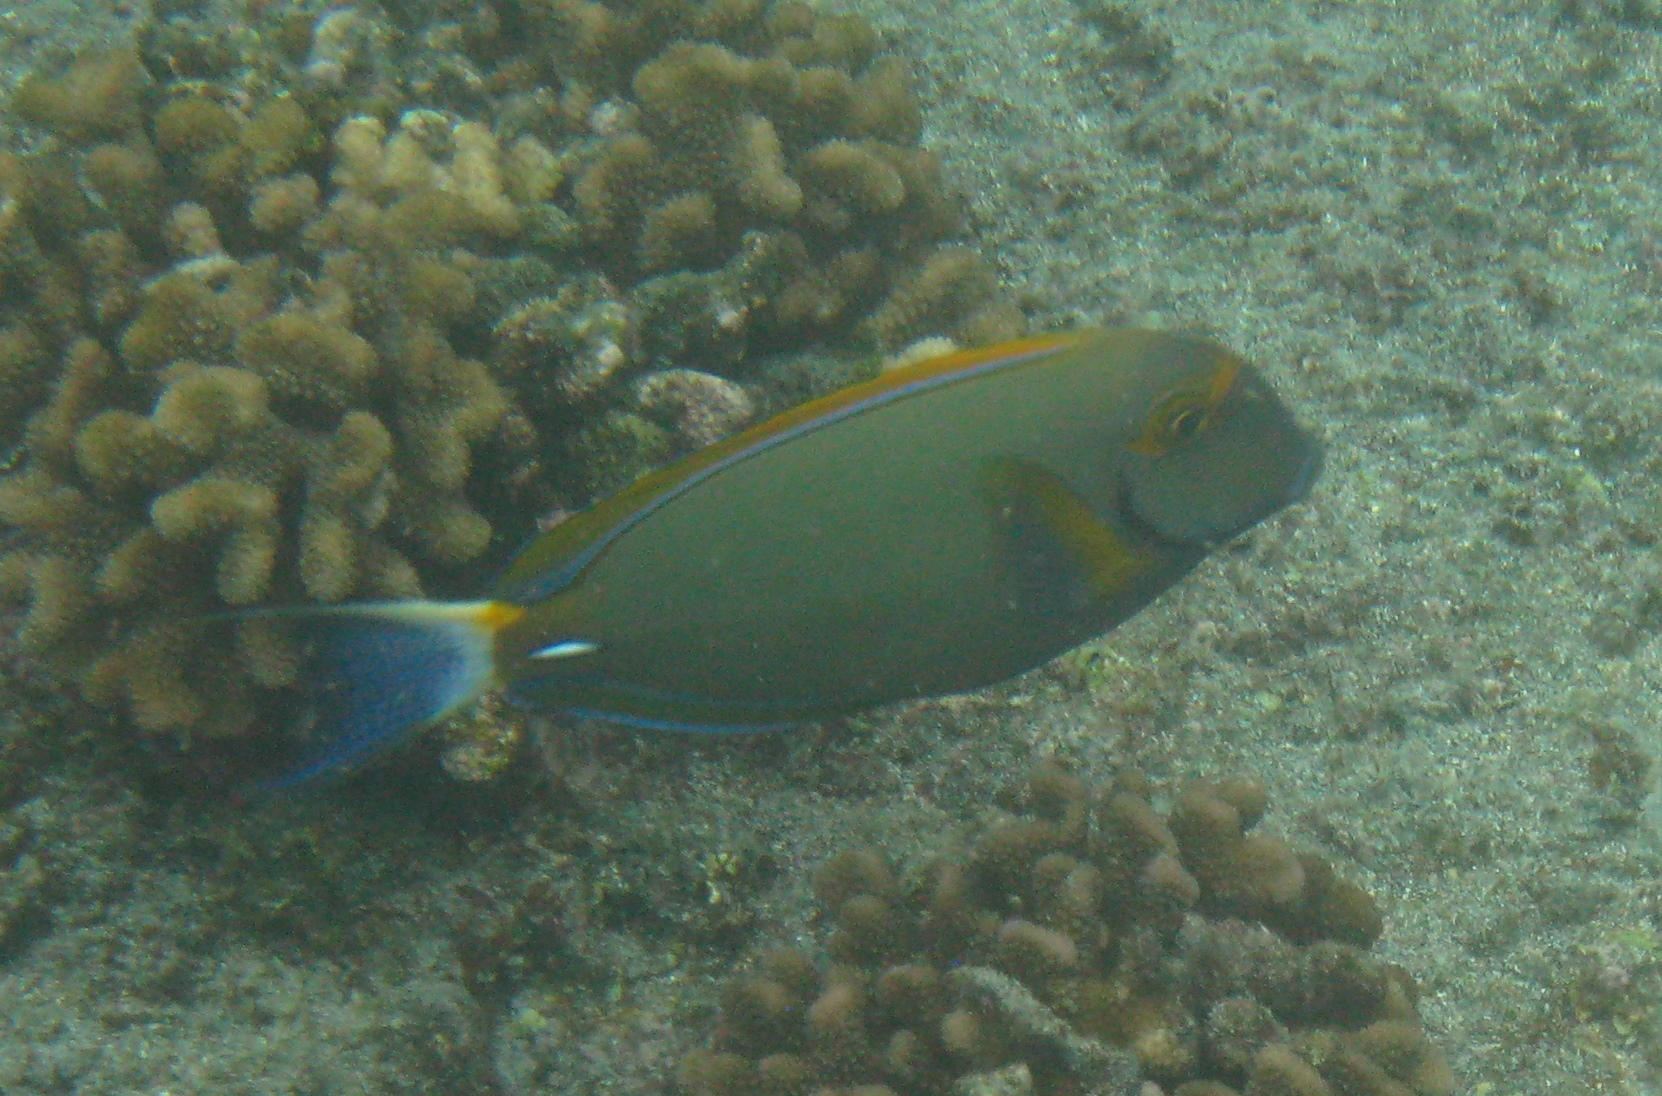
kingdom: Animalia
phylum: Chordata
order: Perciformes
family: Acanthuridae
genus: Acanthurus
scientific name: Acanthurus dussumieri
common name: Dussumier's surgeonfish
